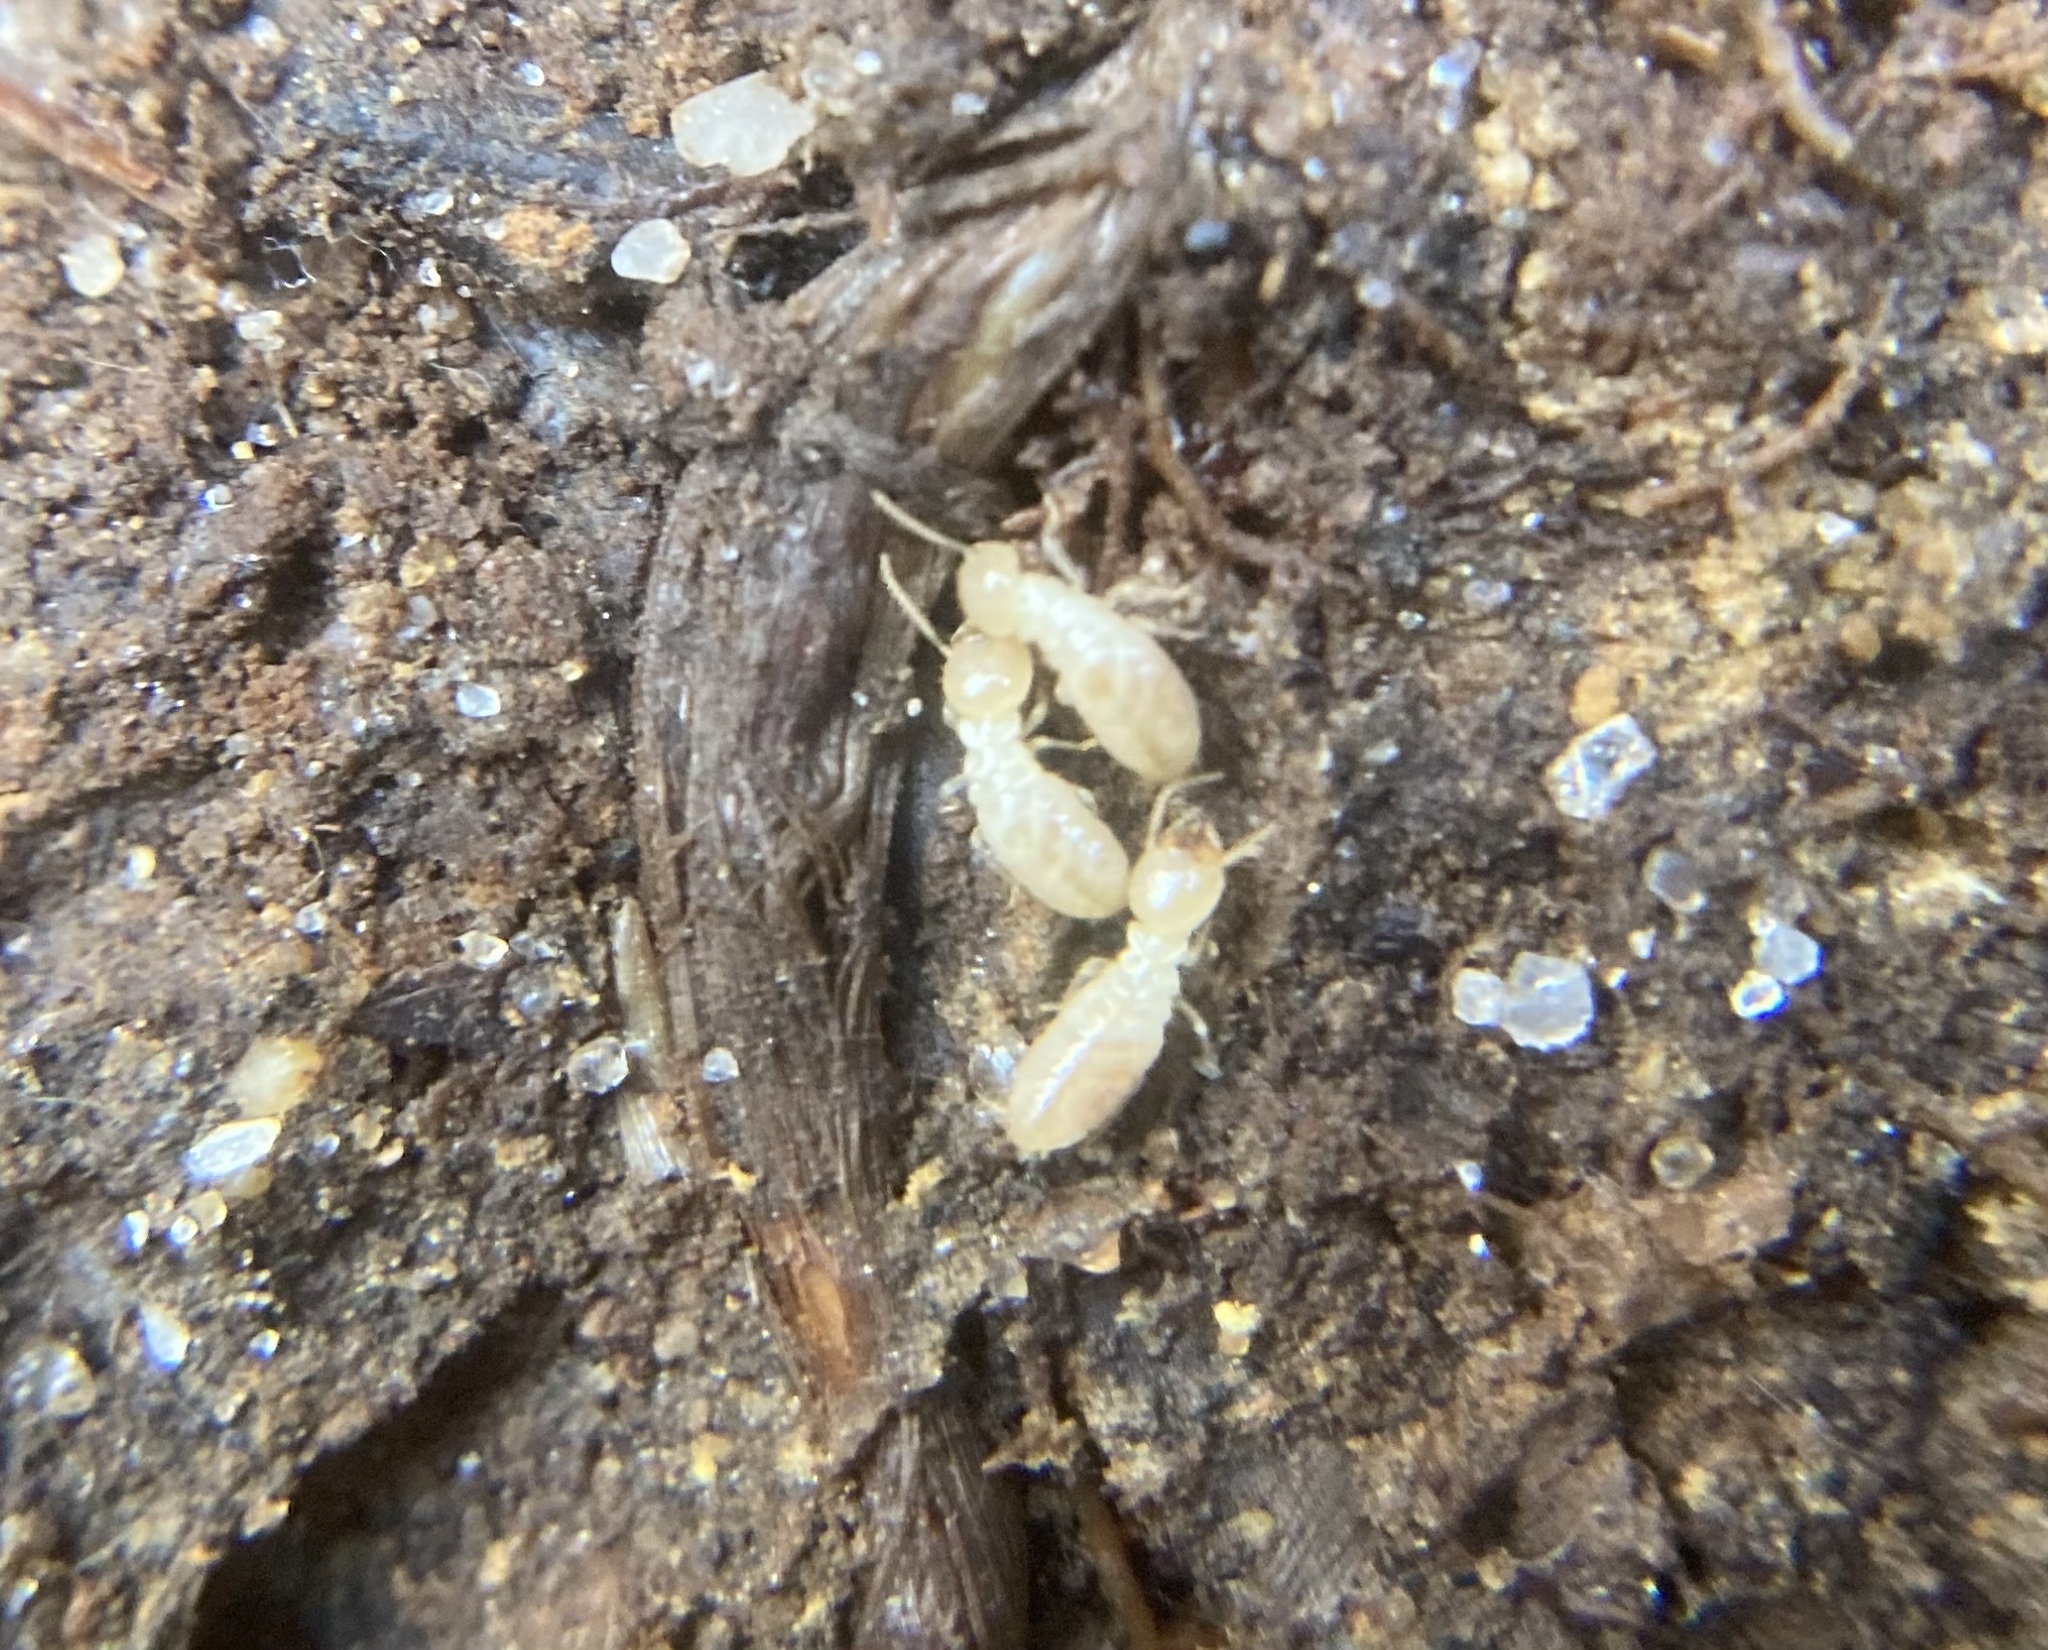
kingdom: Animalia
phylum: Arthropoda
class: Insecta
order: Blattodea
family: Rhinotermitidae
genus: Reticulitermes
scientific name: Reticulitermes flavipes
